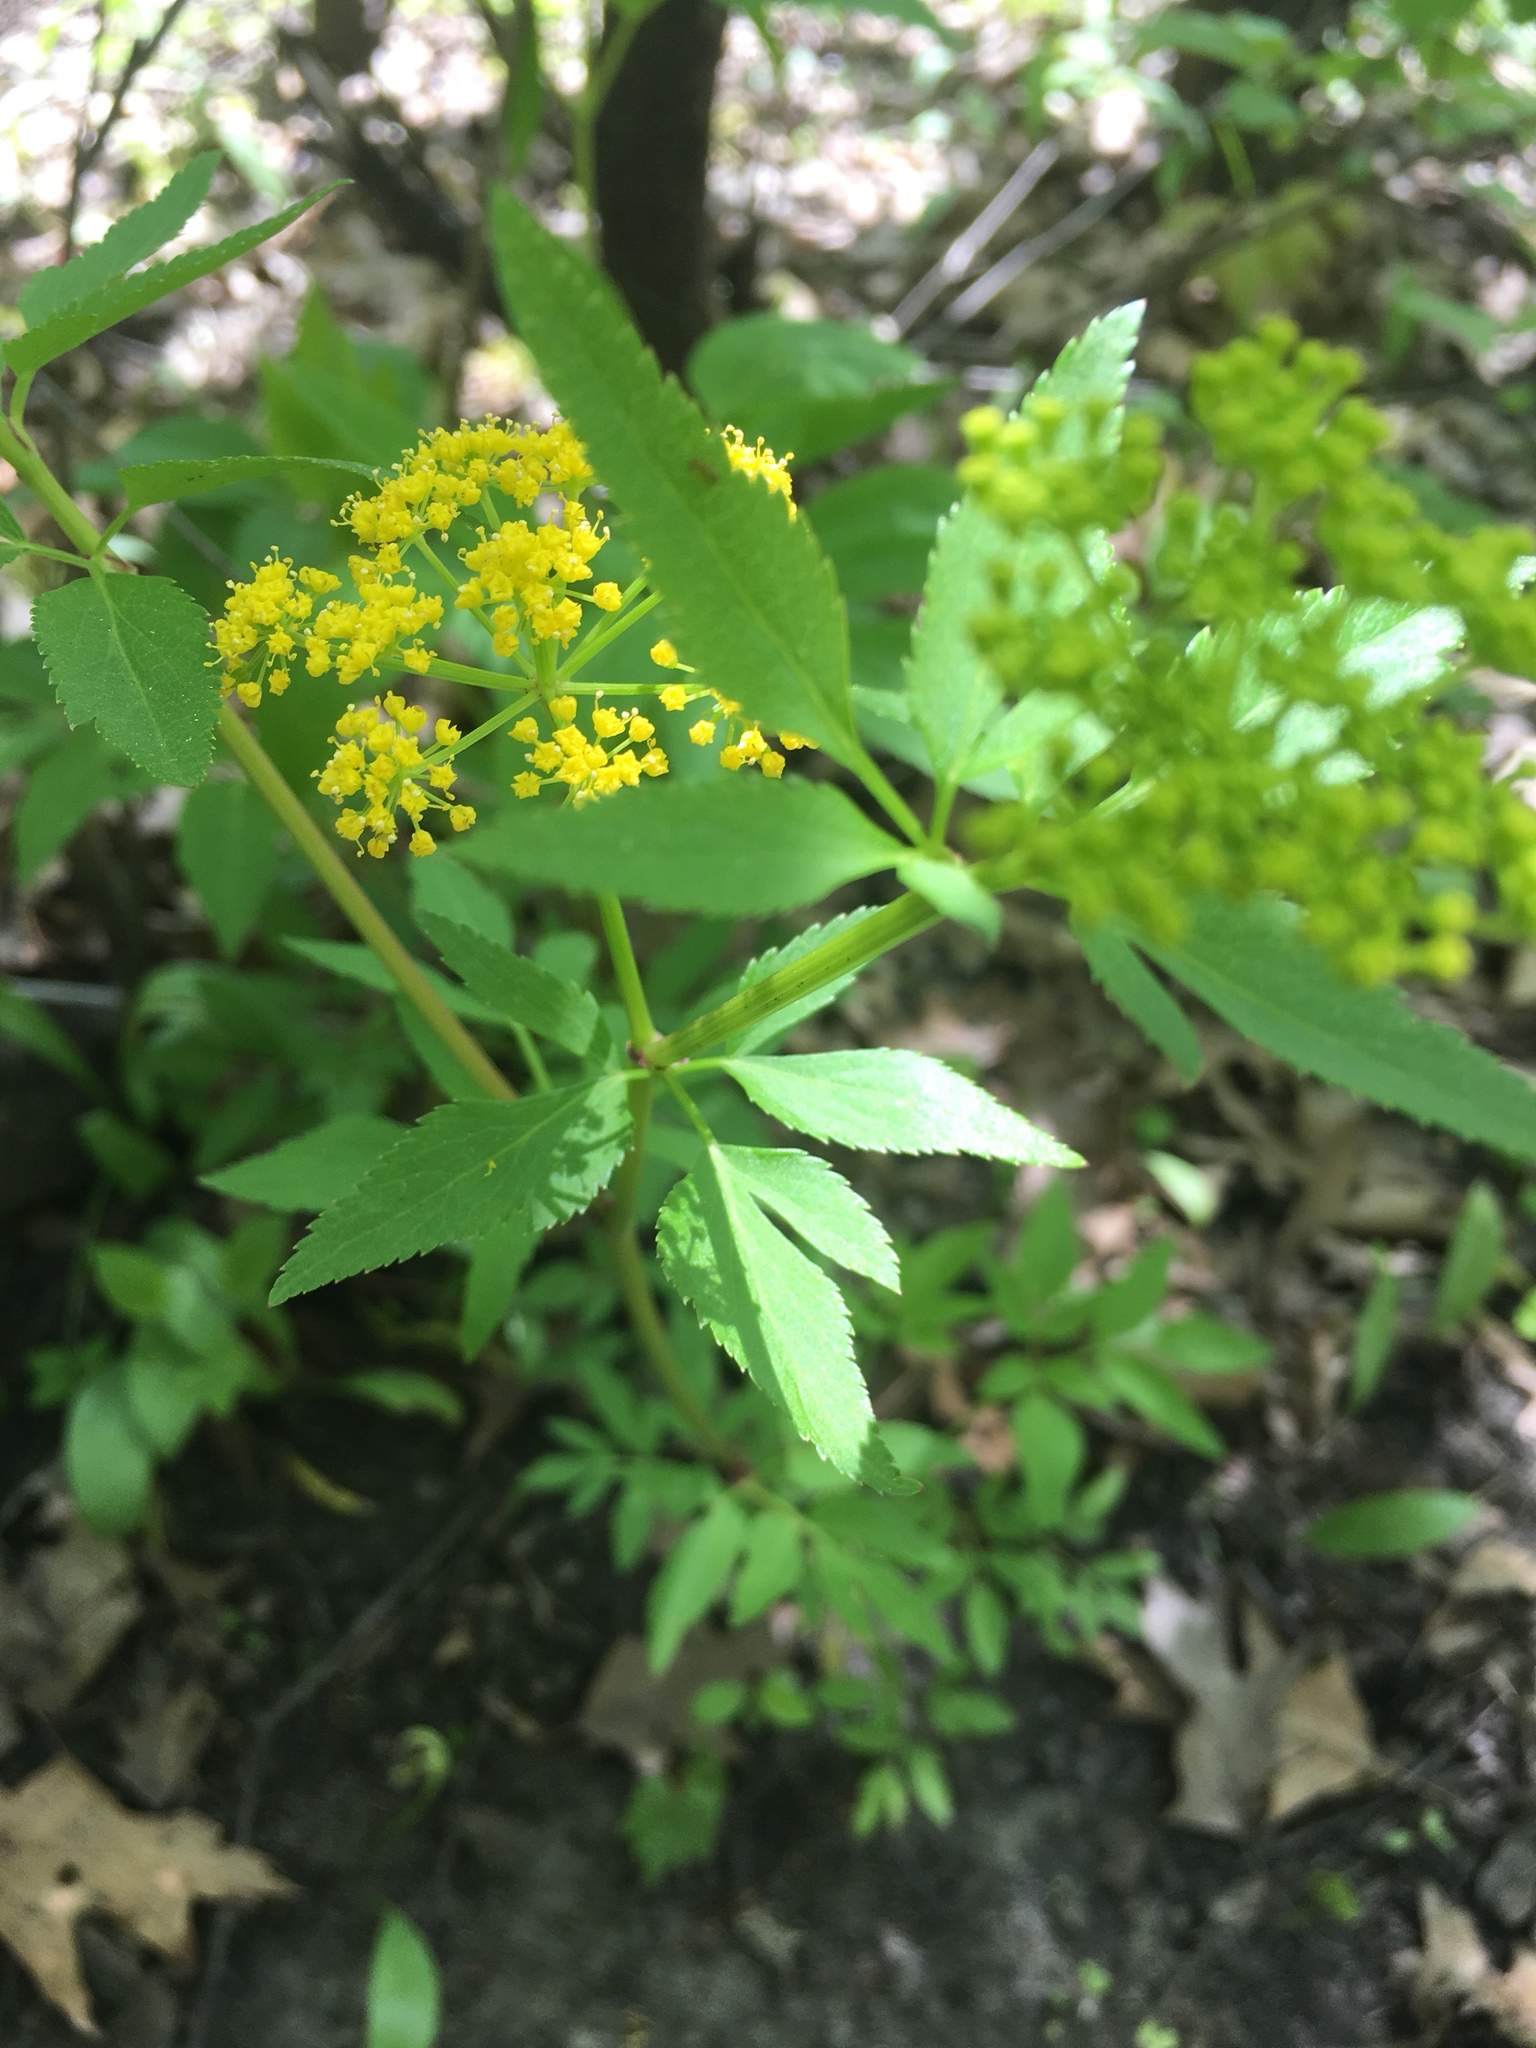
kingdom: Plantae
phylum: Tracheophyta
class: Magnoliopsida
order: Apiales
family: Apiaceae
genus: Zizia
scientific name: Zizia aurea
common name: Golden alexanders
